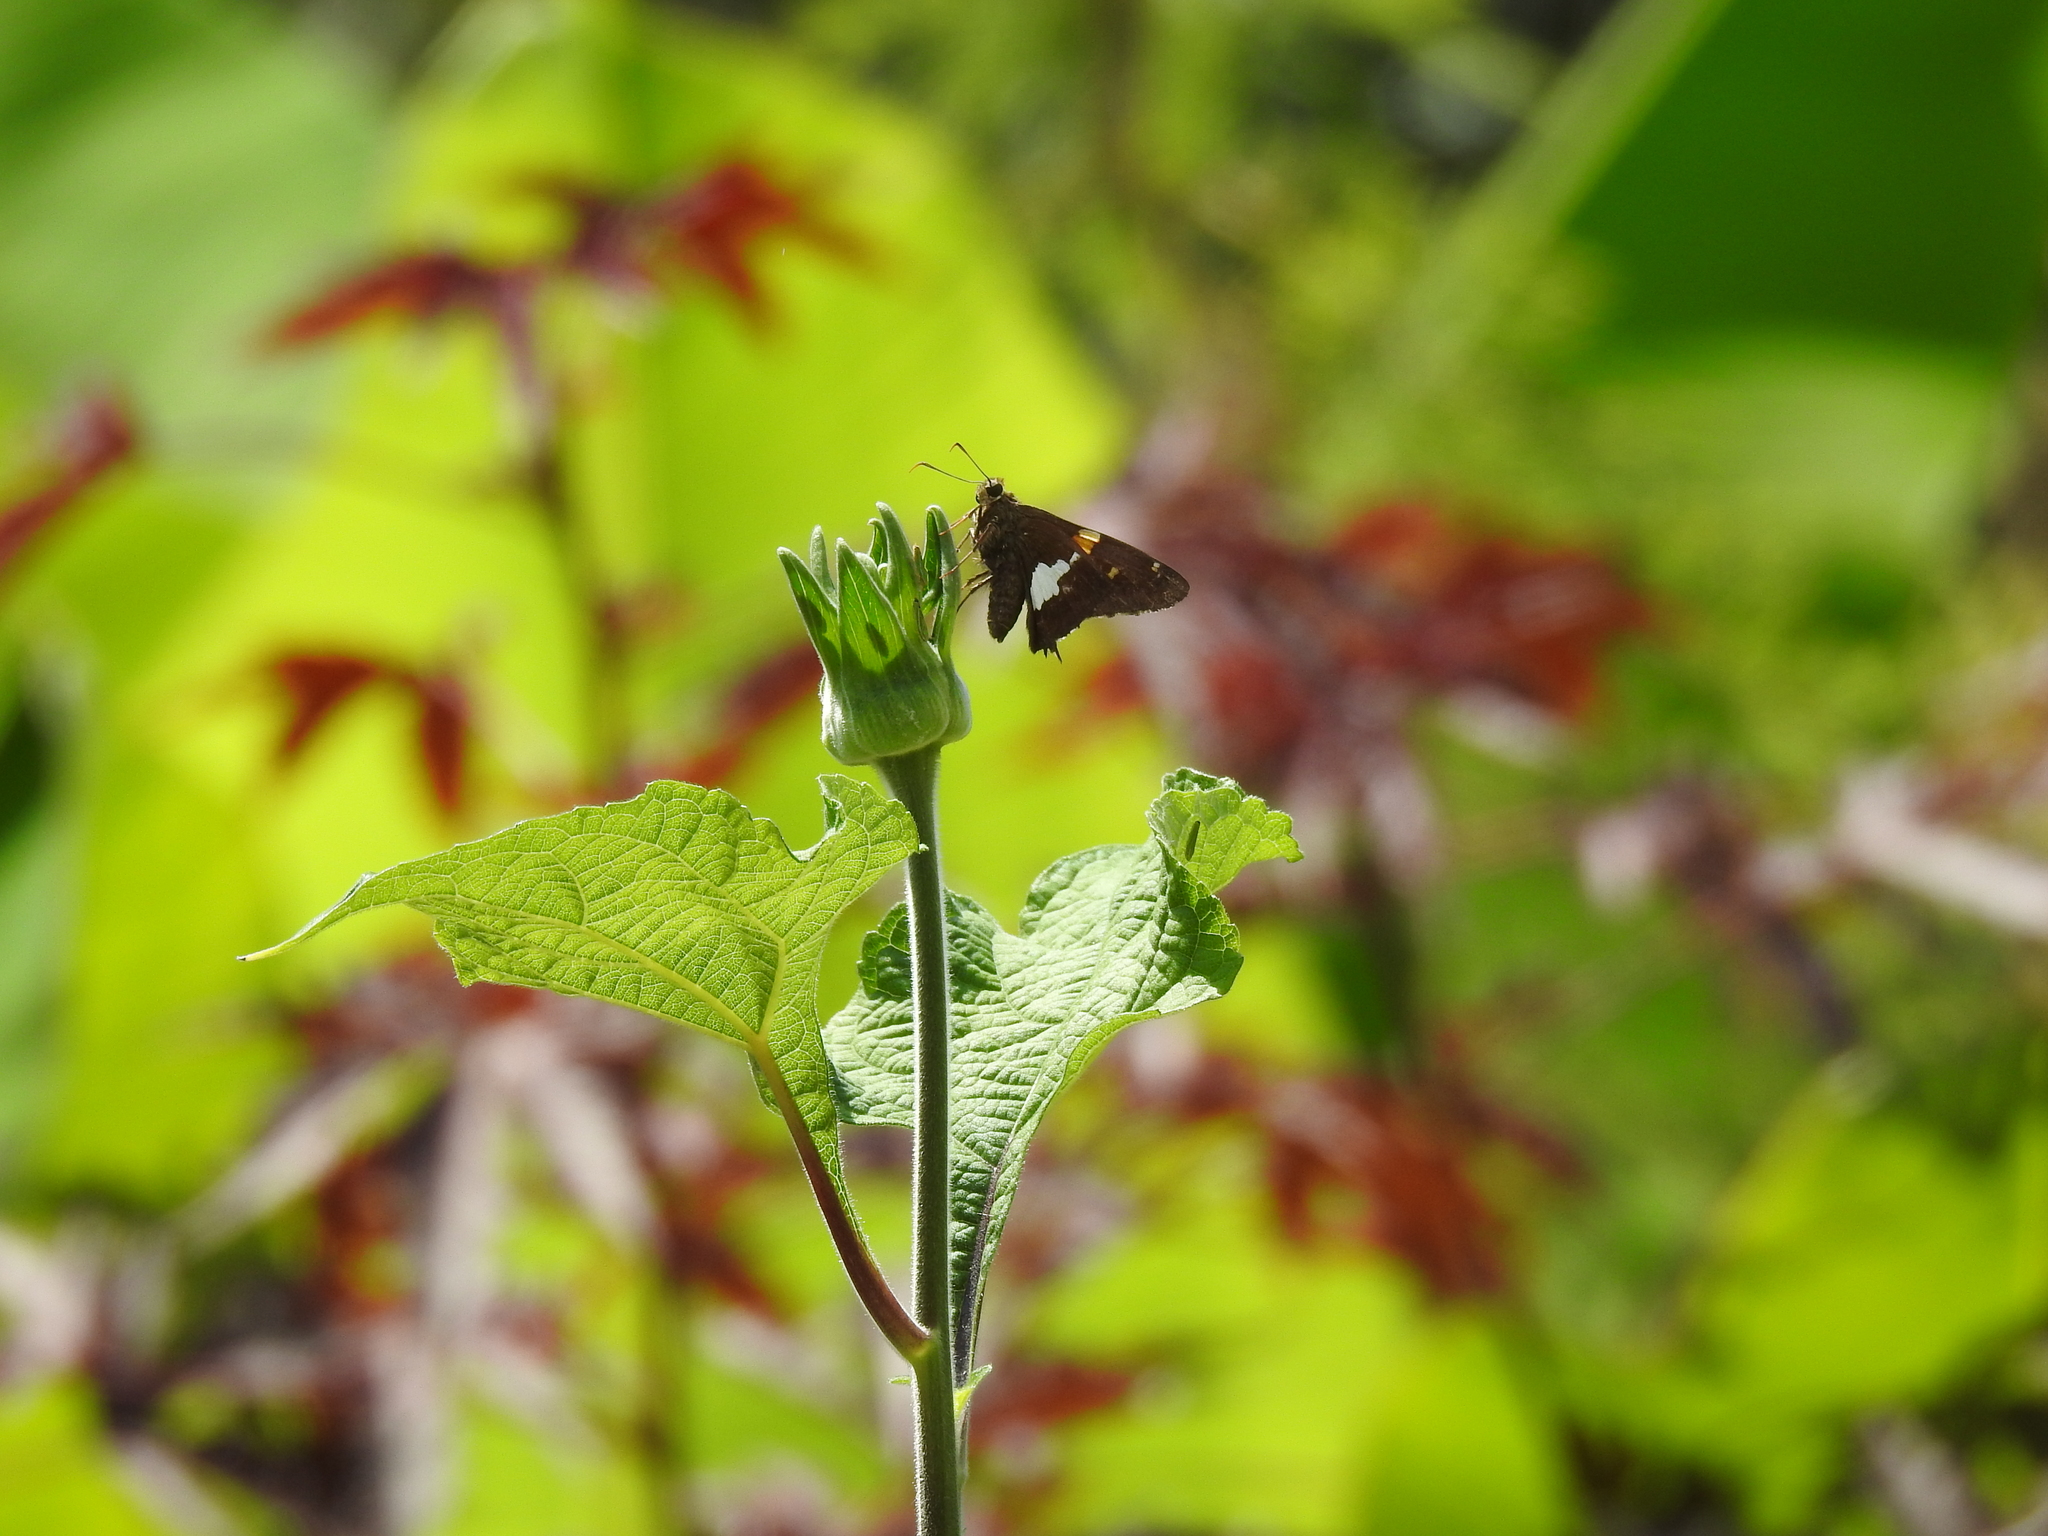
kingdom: Animalia
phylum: Arthropoda
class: Insecta
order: Lepidoptera
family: Hesperiidae
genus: Epargyreus
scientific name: Epargyreus clarus
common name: Silver-spotted skipper
